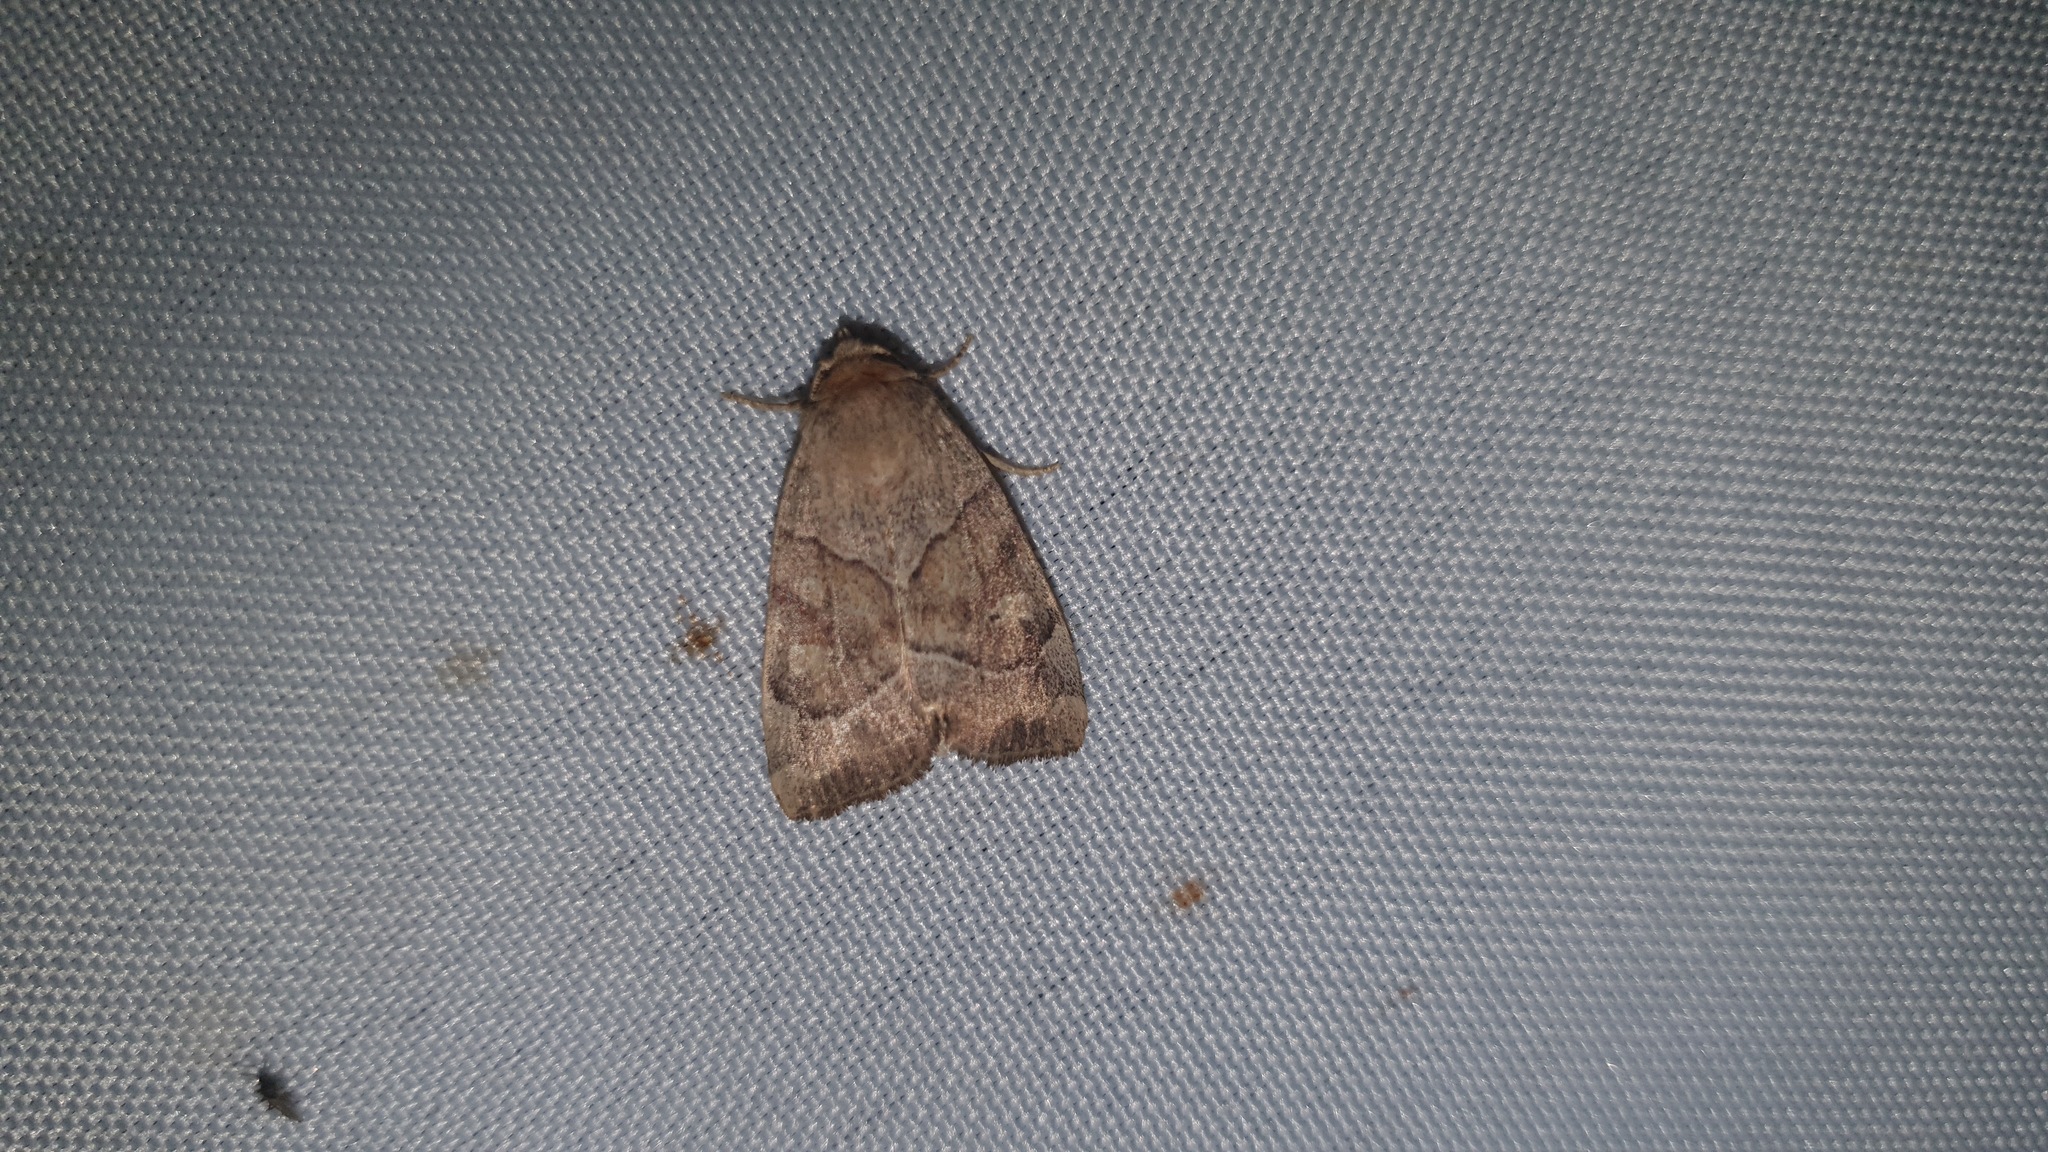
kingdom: Animalia
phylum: Arthropoda
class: Insecta
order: Lepidoptera
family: Noctuidae
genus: Cosmia
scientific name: Cosmia trapezina
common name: Dun-bar
